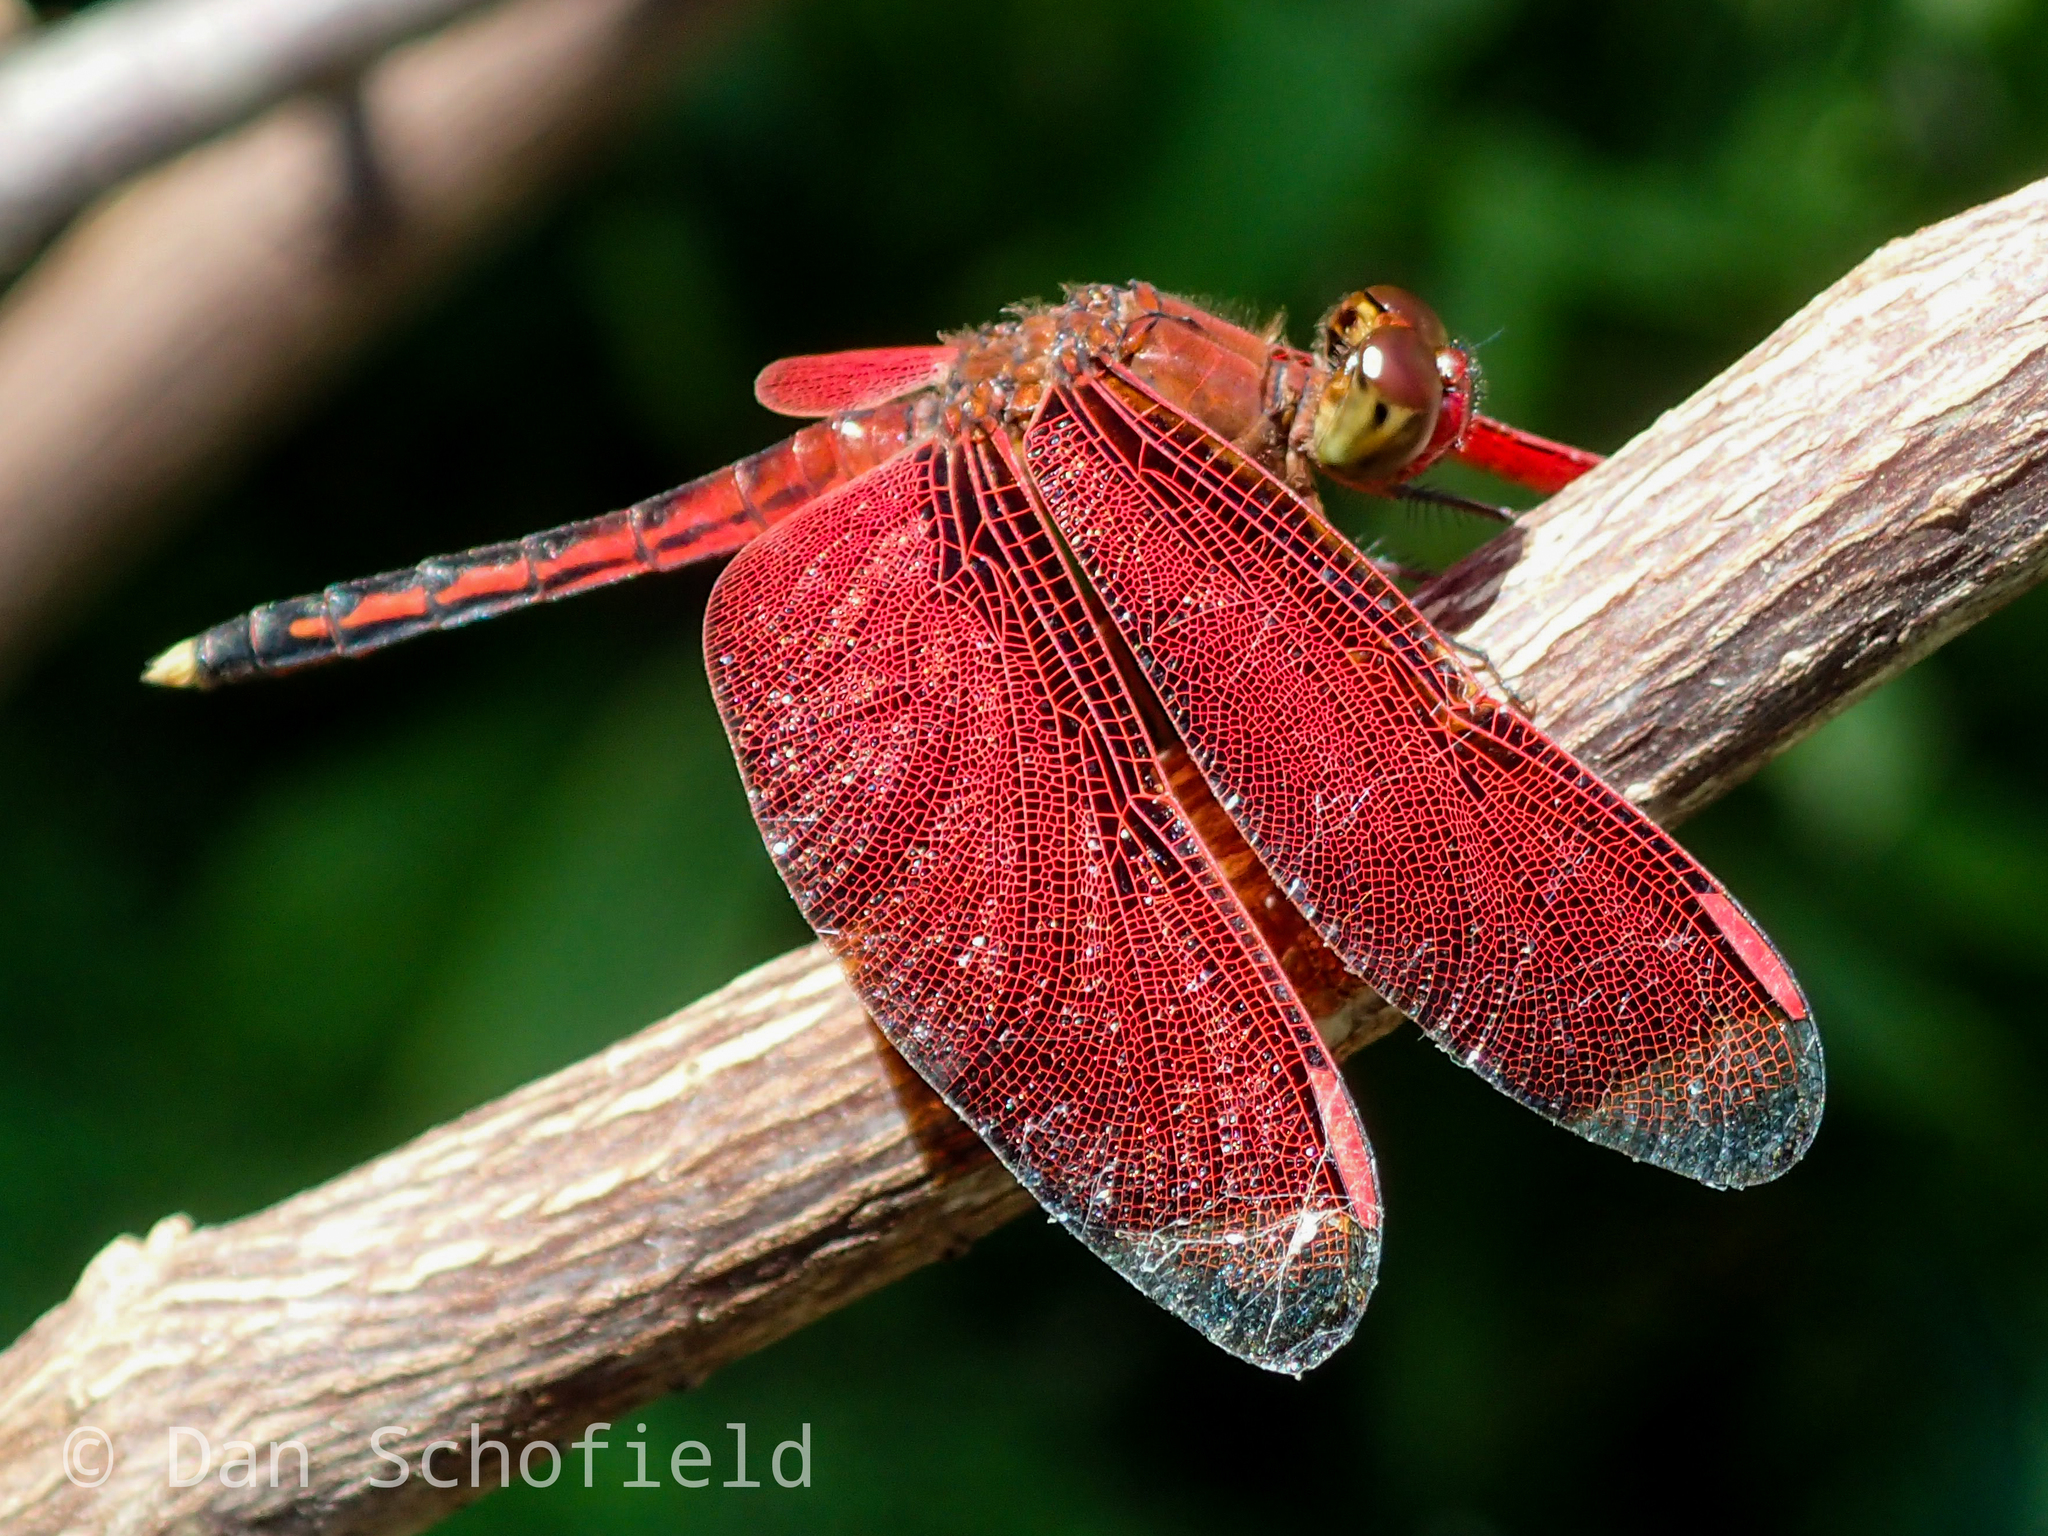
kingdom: Animalia
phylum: Arthropoda
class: Insecta
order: Odonata
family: Libellulidae
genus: Neurothemis
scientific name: Neurothemis manadensis
